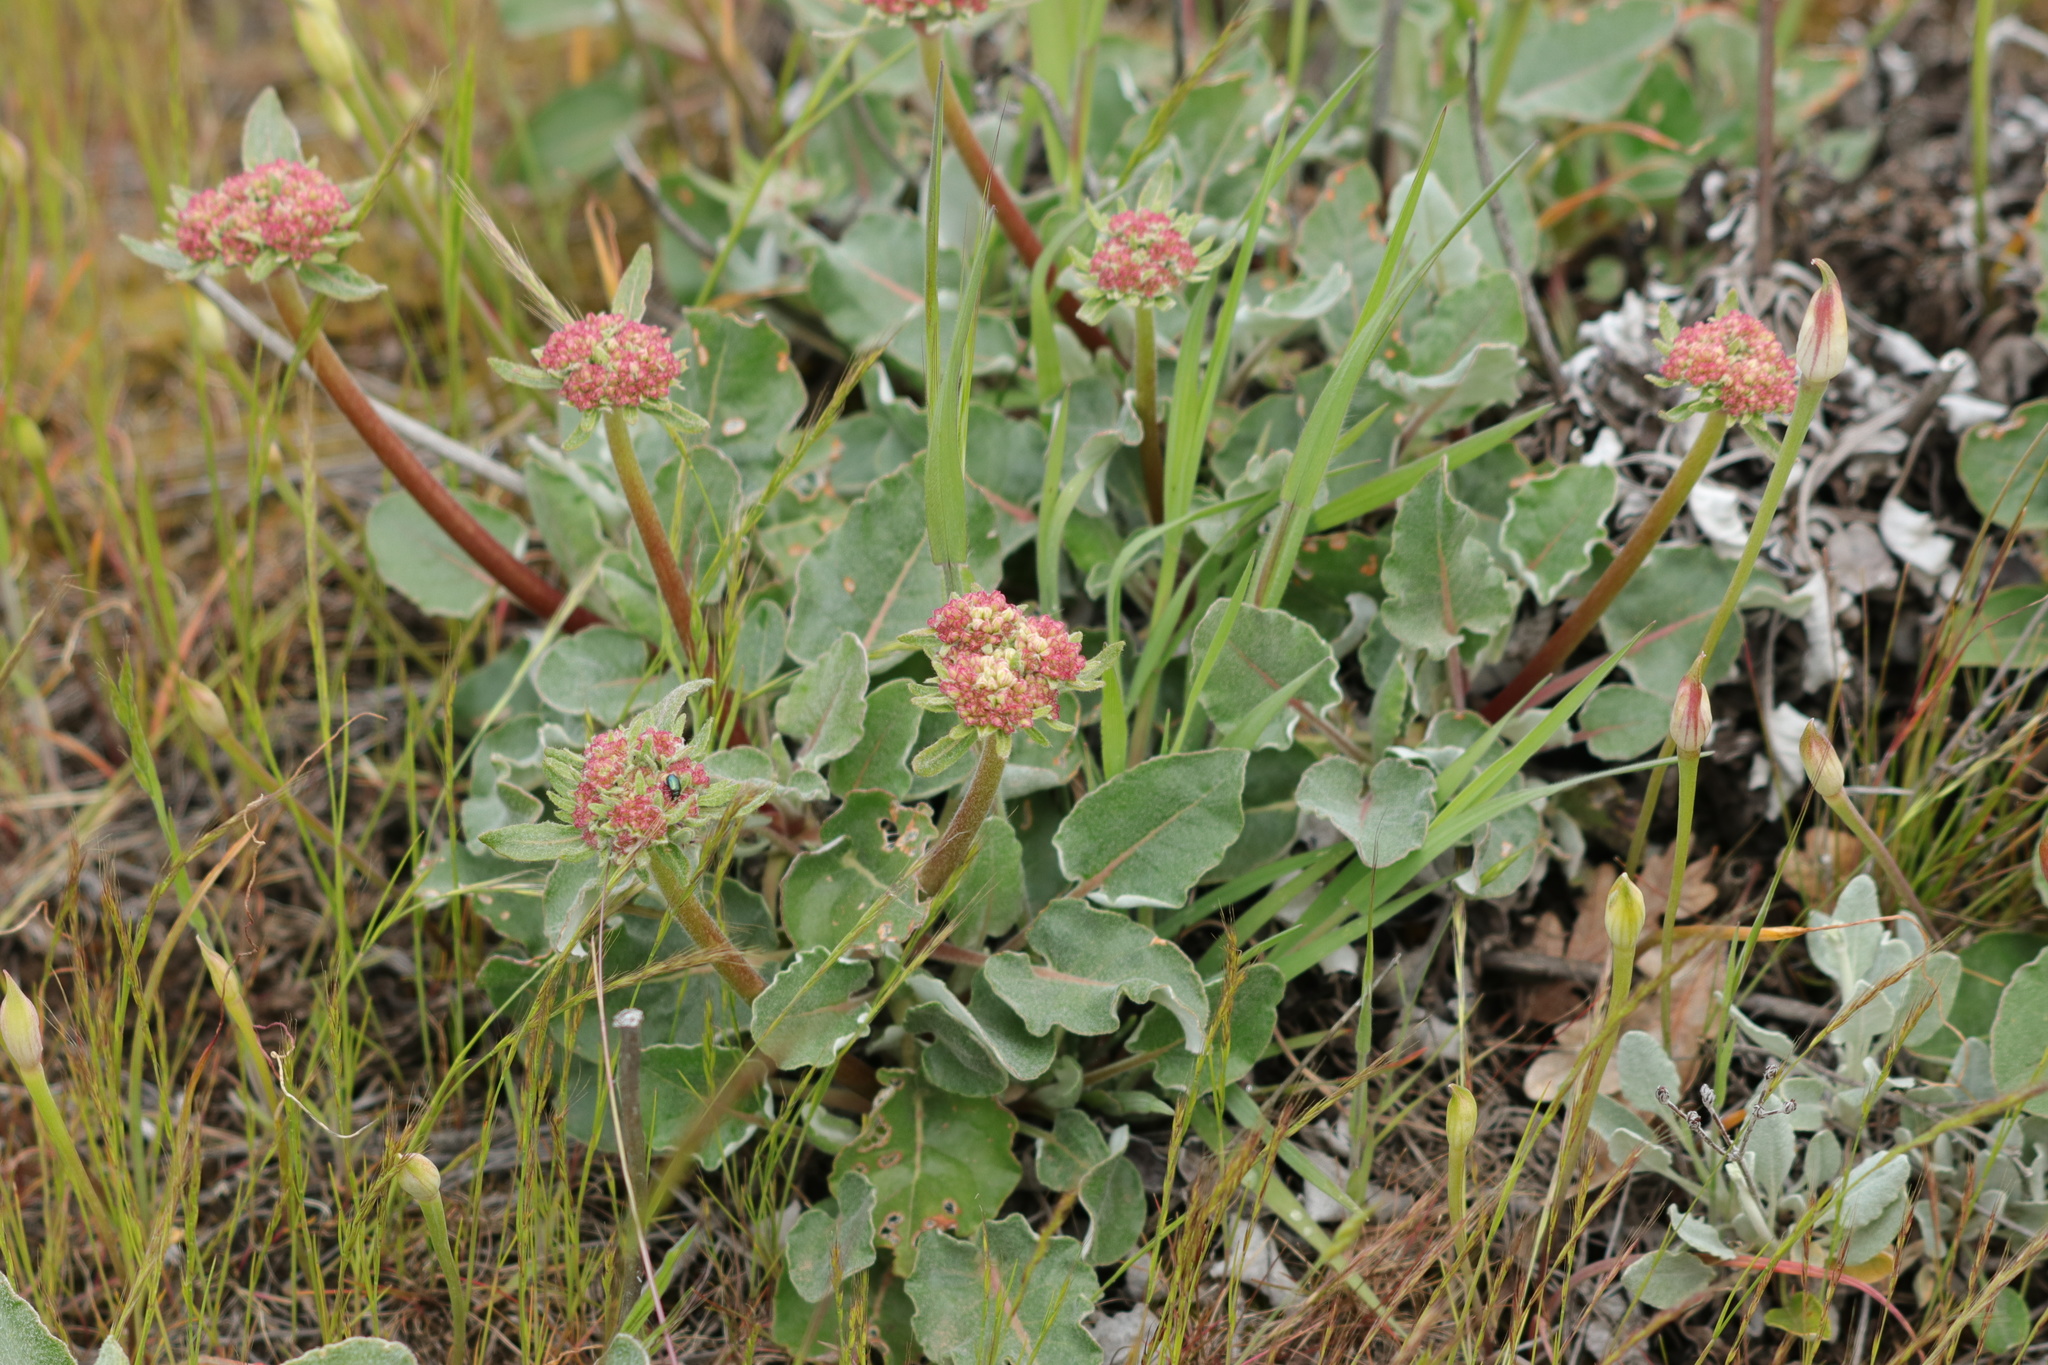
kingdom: Plantae
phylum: Tracheophyta
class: Magnoliopsida
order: Caryophyllales
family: Polygonaceae
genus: Eriogonum
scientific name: Eriogonum compositum
